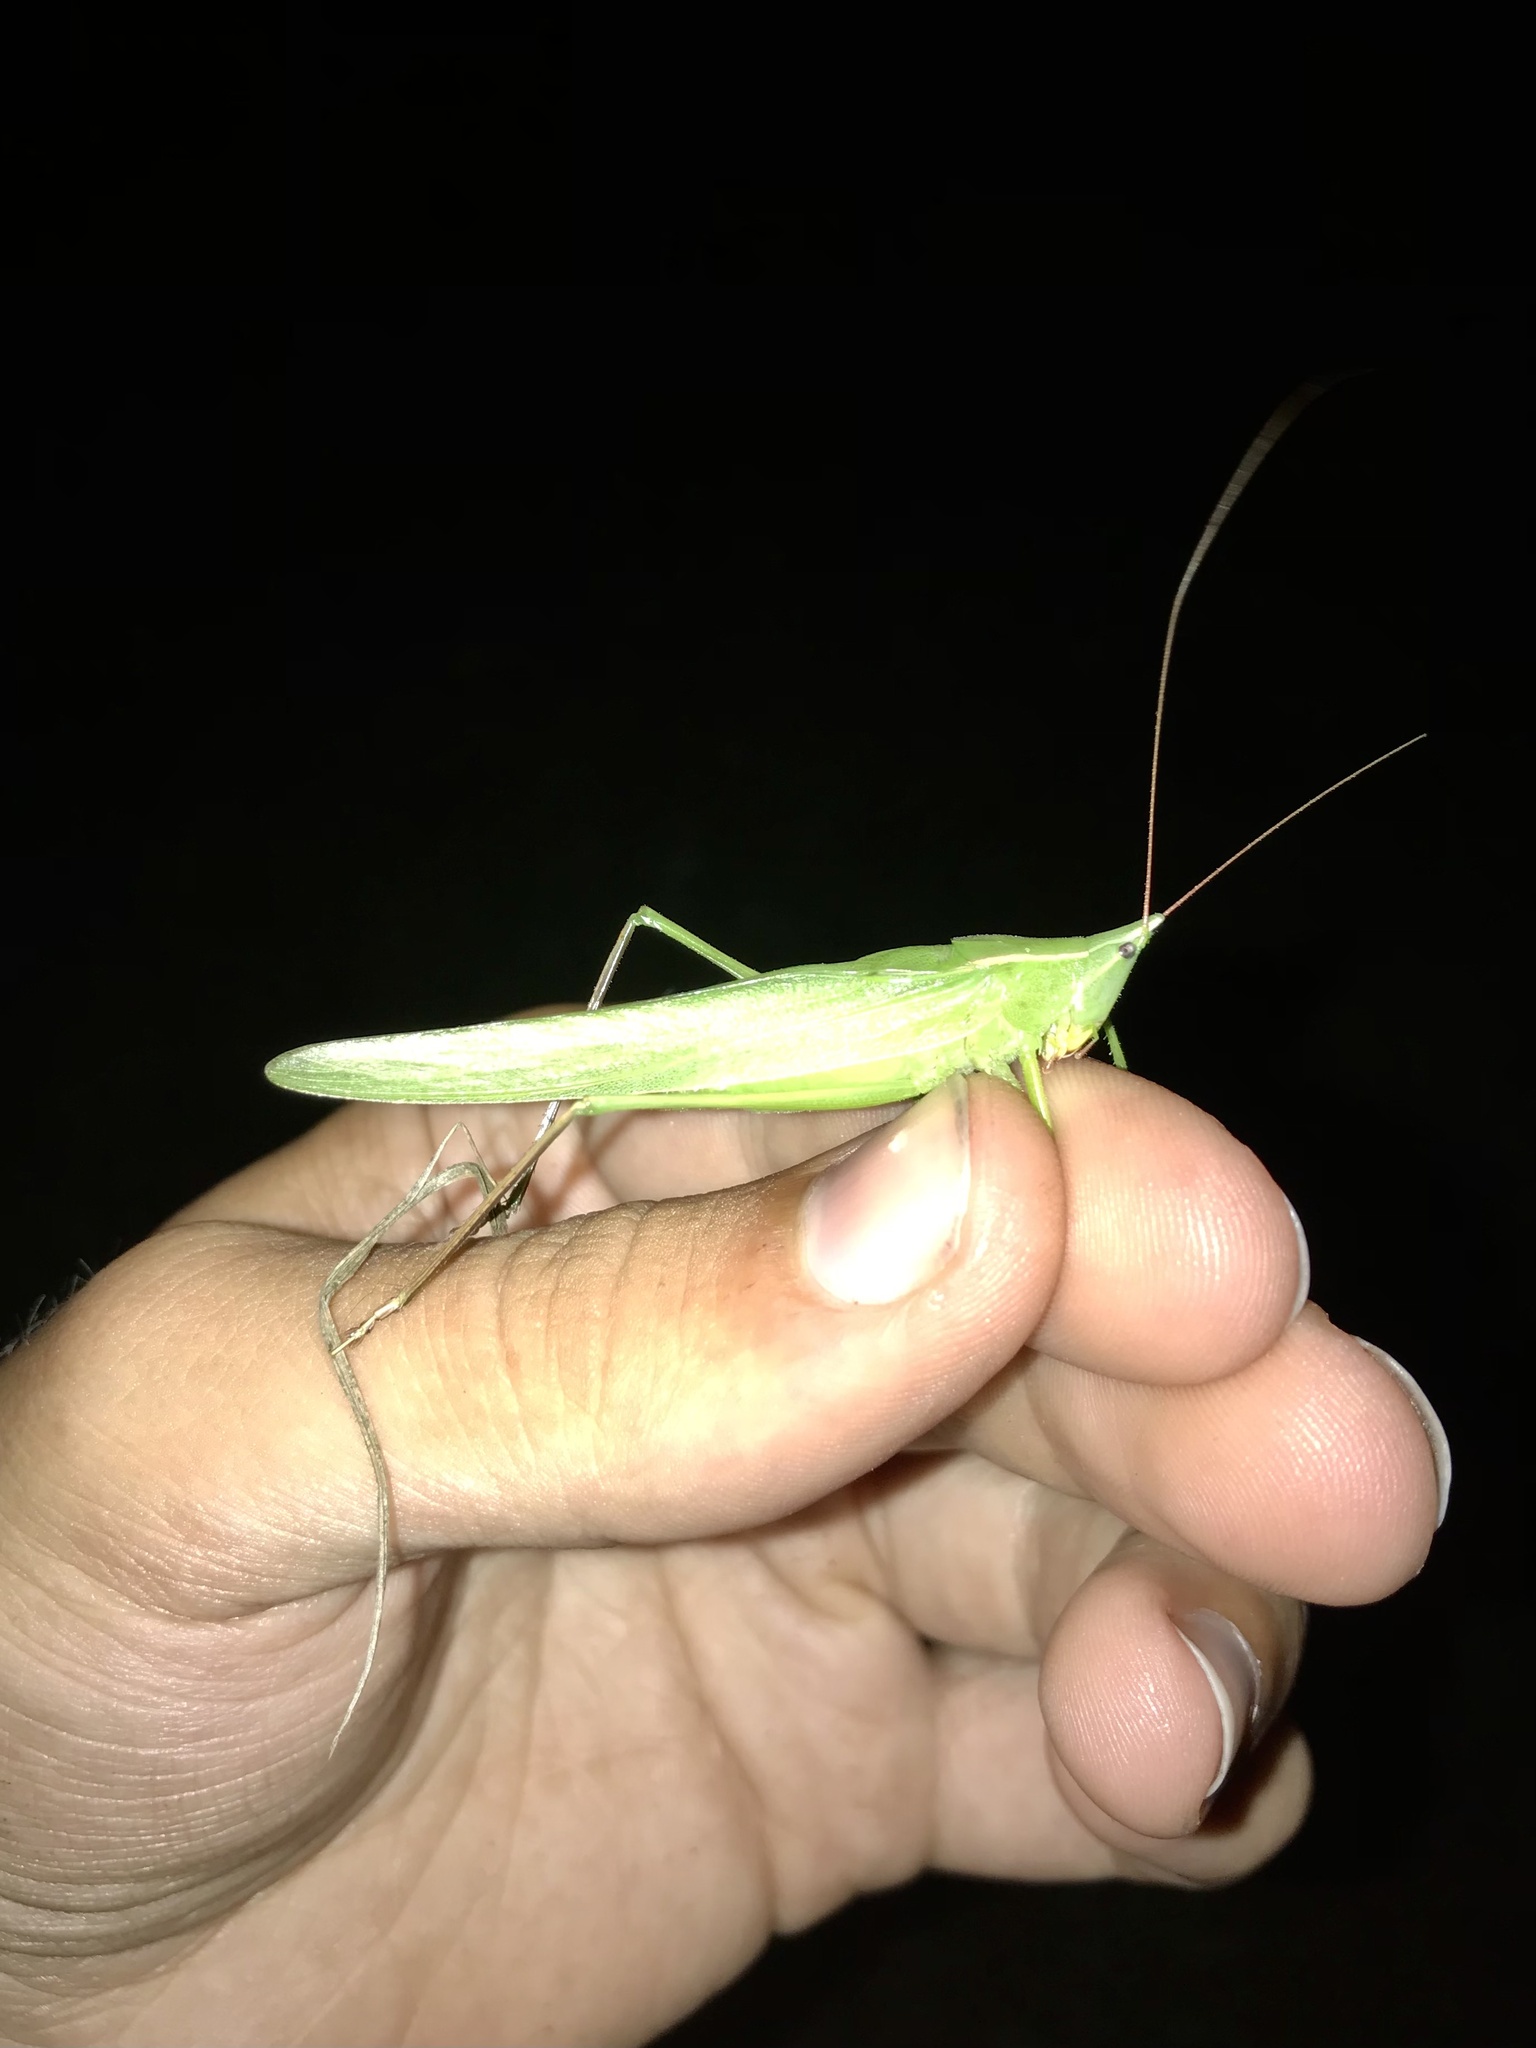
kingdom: Animalia
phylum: Arthropoda
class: Insecta
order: Orthoptera
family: Tettigoniidae
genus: Neoconocephalus
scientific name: Neoconocephalus ensiger
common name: Swordbearer
